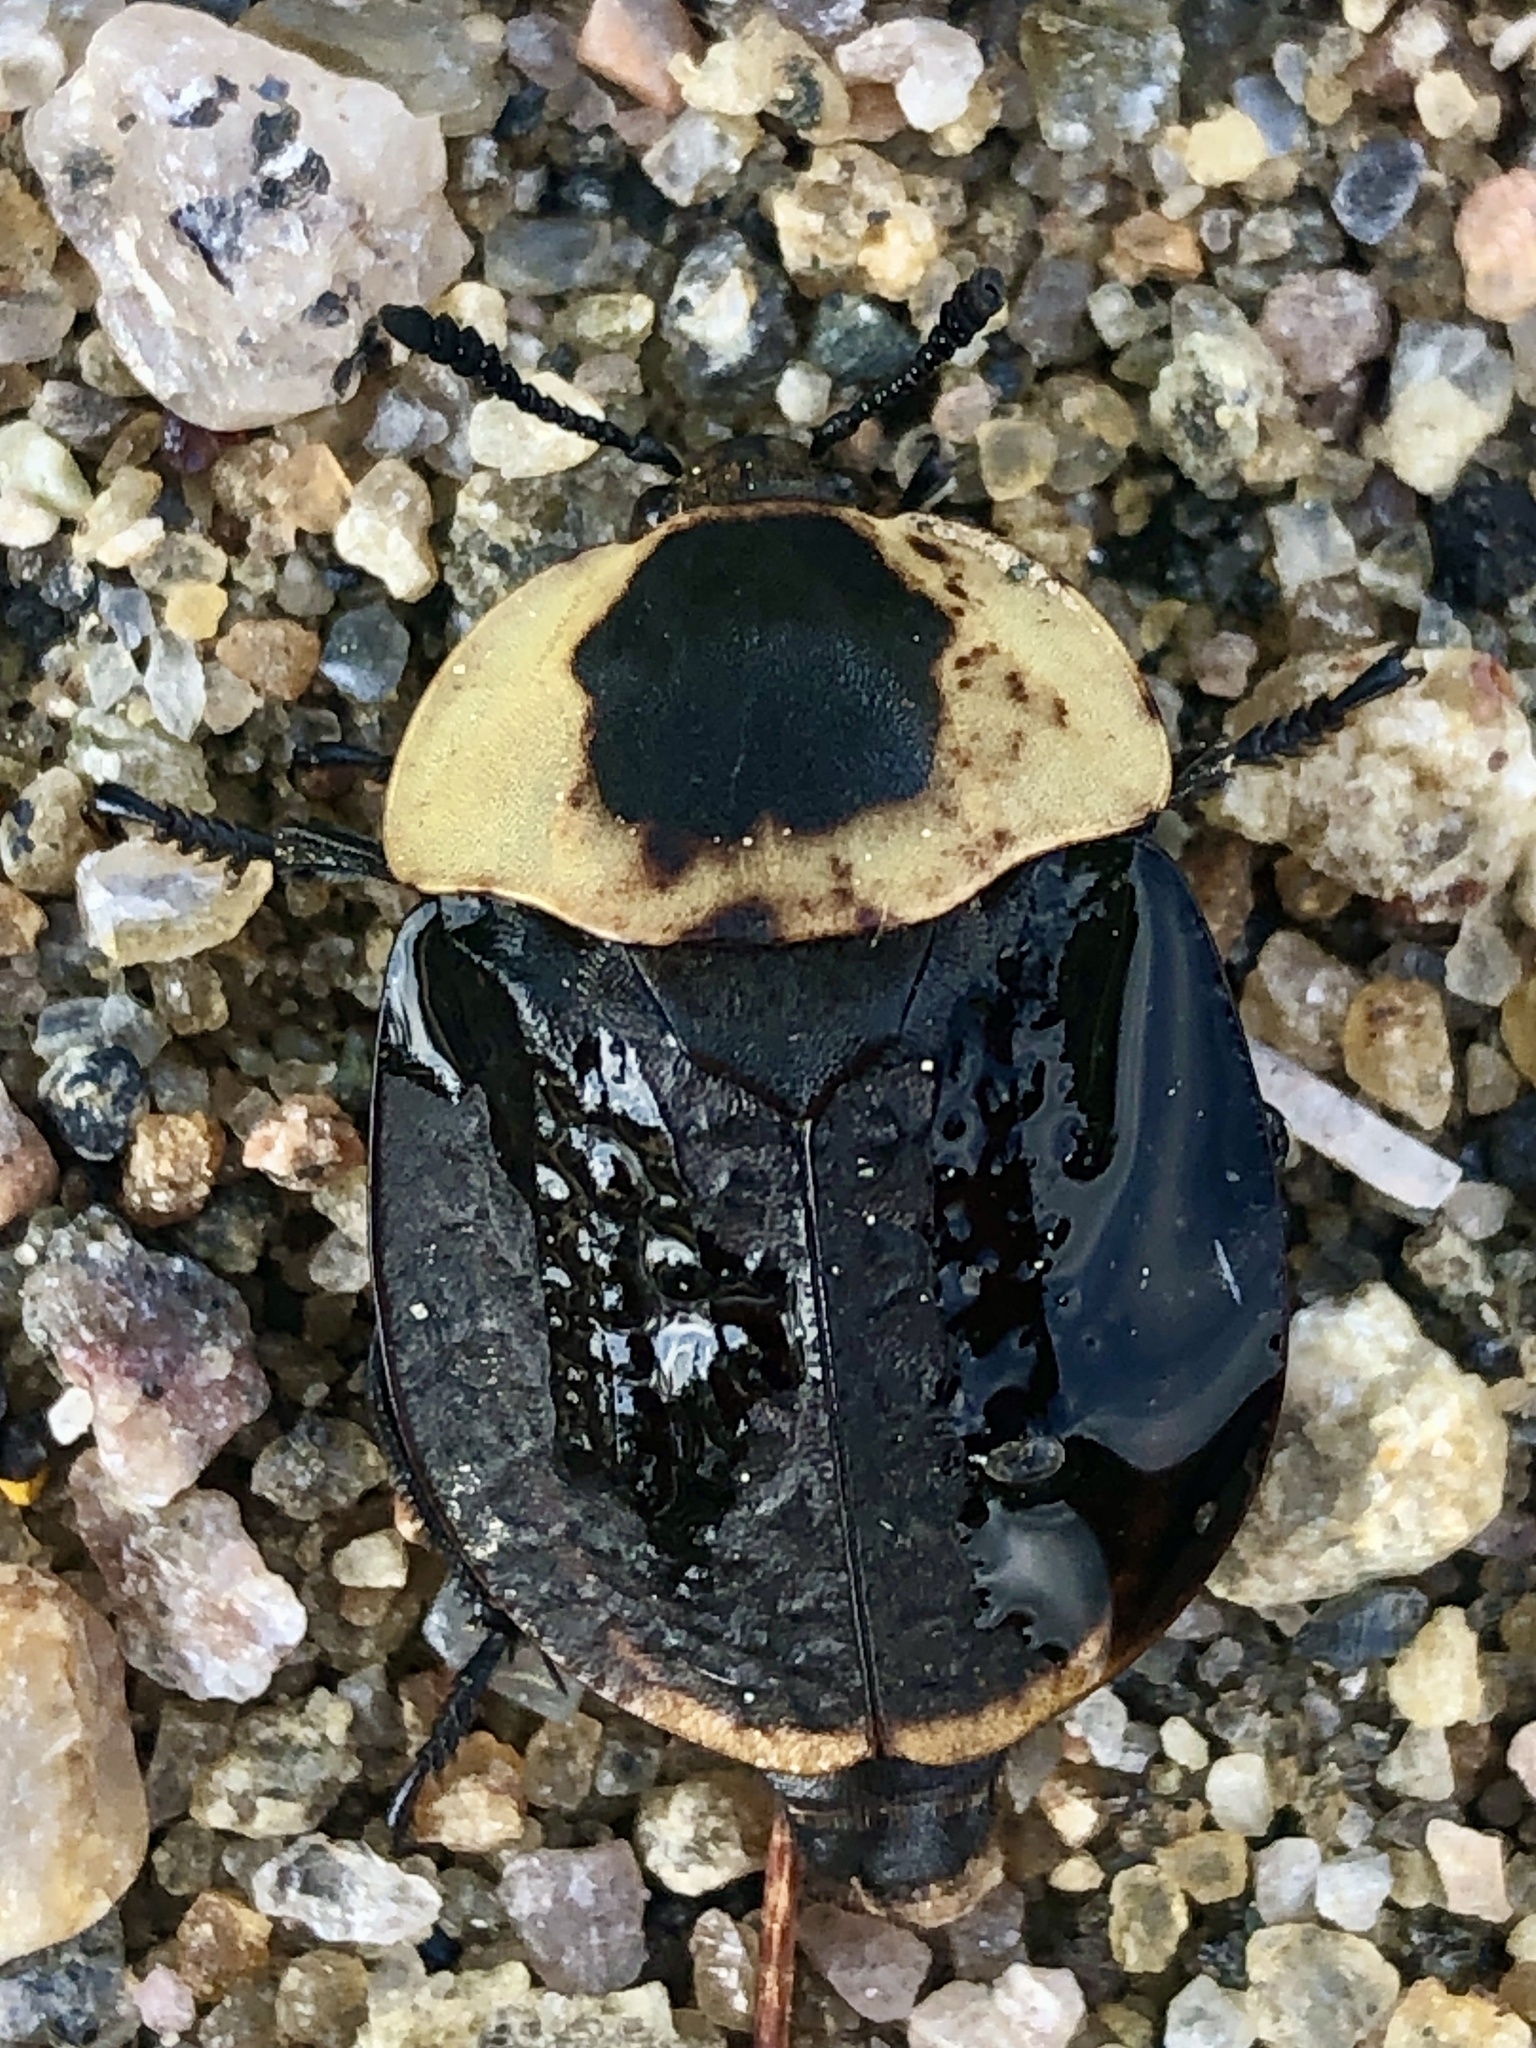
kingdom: Animalia
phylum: Arthropoda
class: Insecta
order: Coleoptera
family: Staphylinidae
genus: Necrophila
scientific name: Necrophila americana
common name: American carrion beetle
